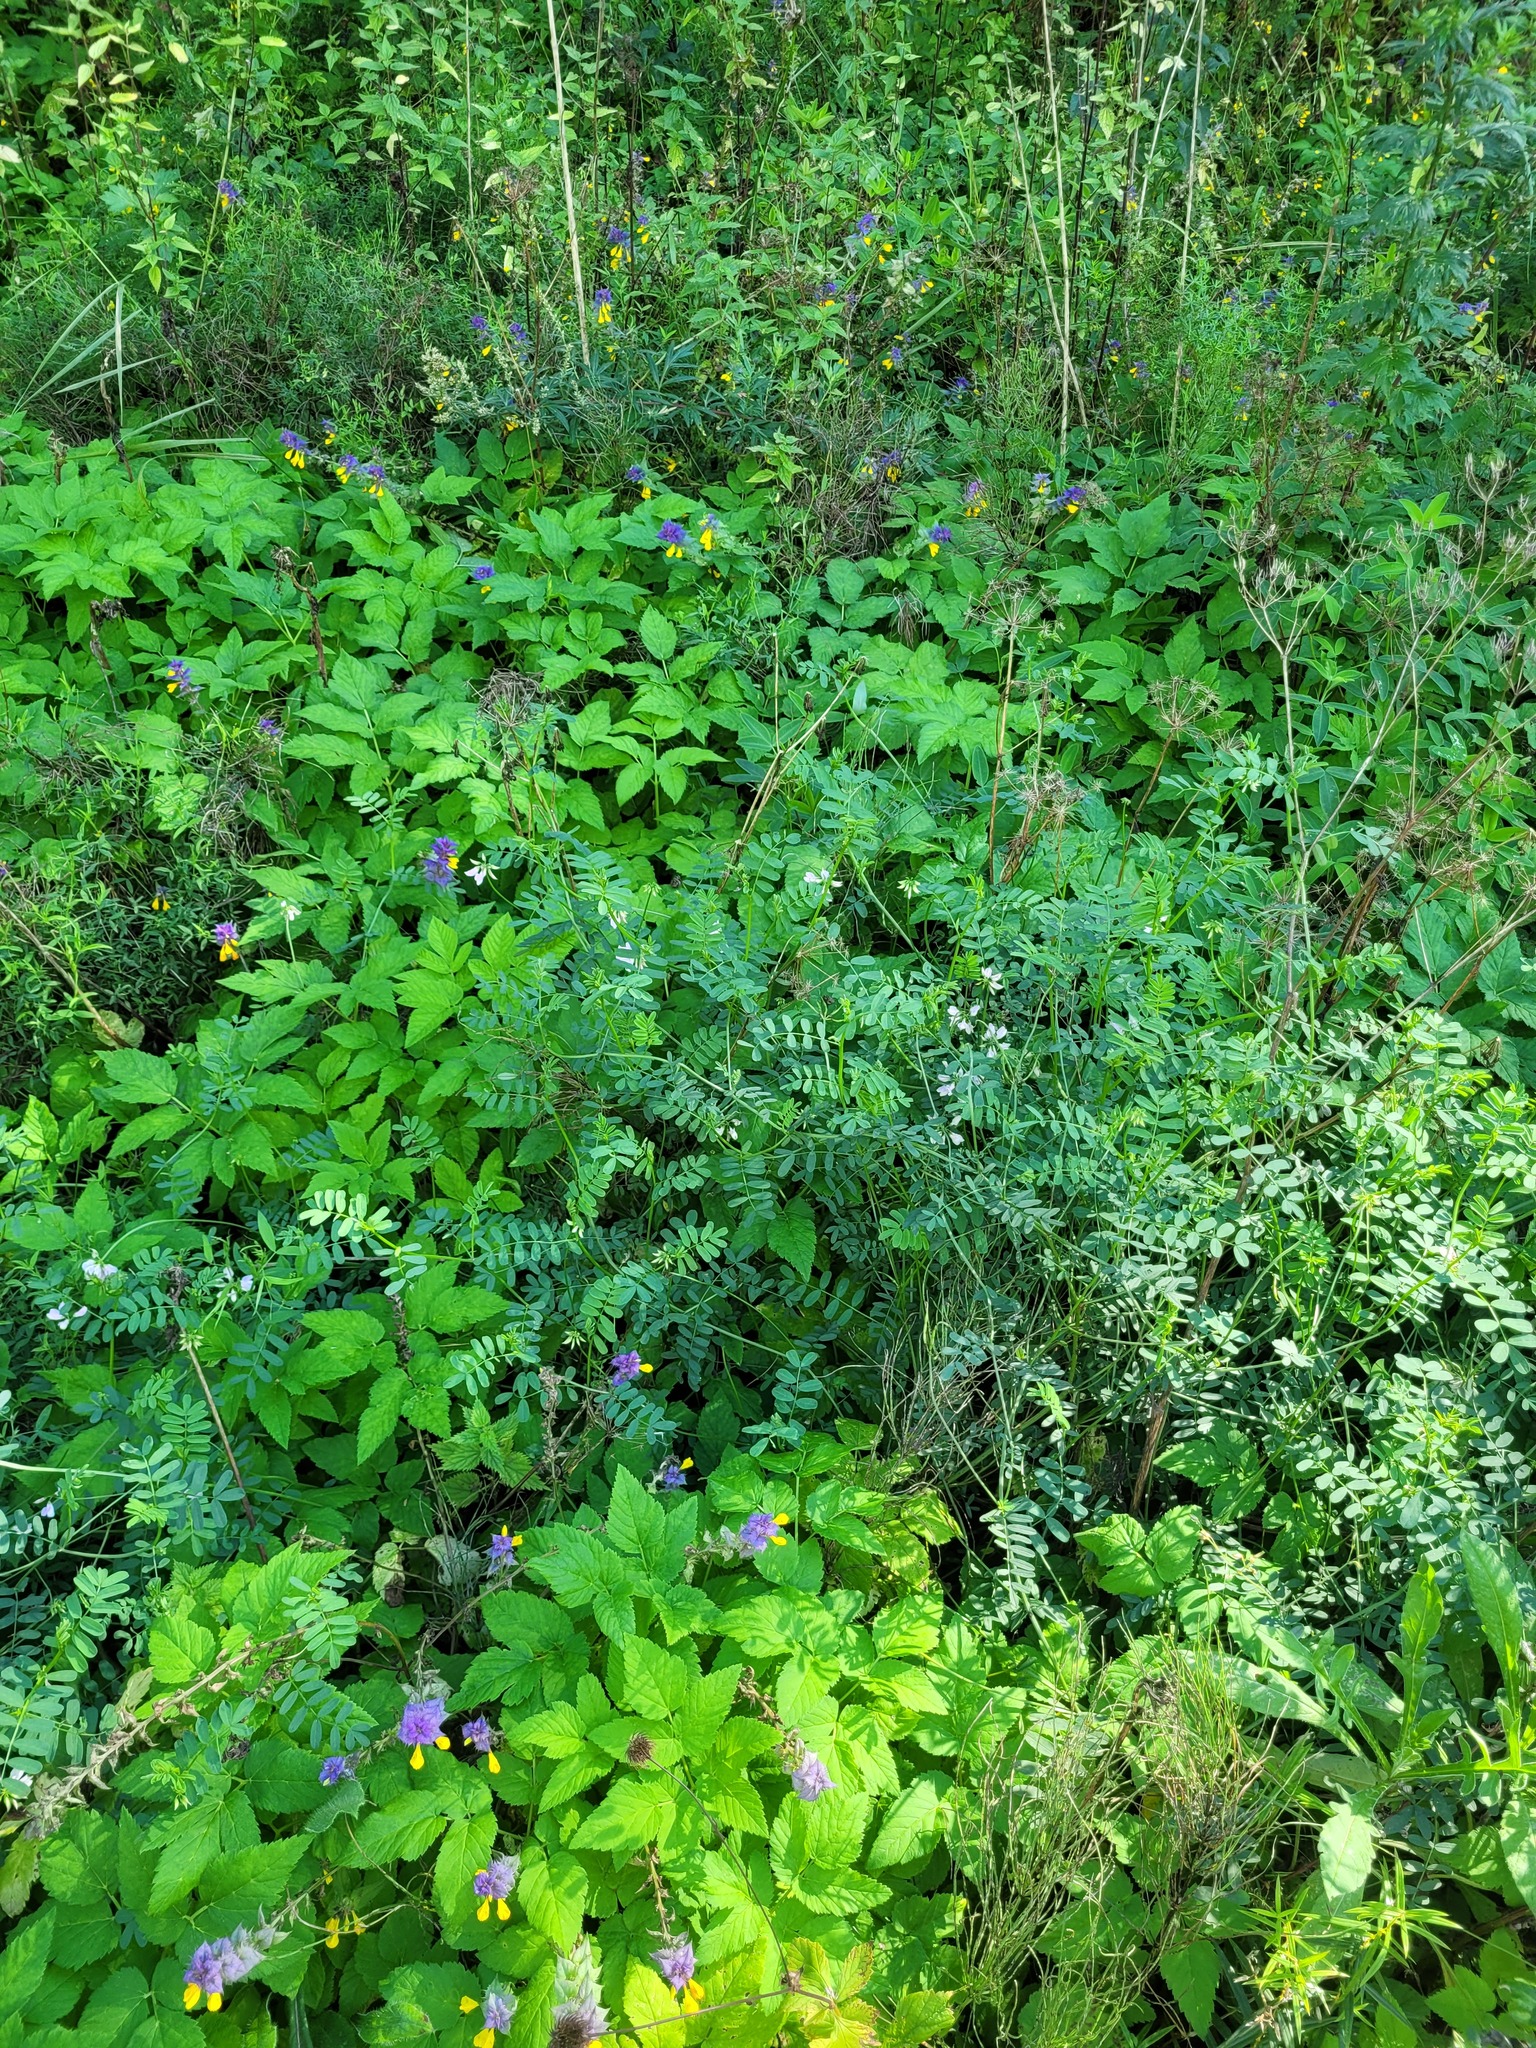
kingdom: Plantae
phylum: Tracheophyta
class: Magnoliopsida
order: Fabales
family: Fabaceae
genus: Coronilla
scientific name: Coronilla varia
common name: Crownvetch
